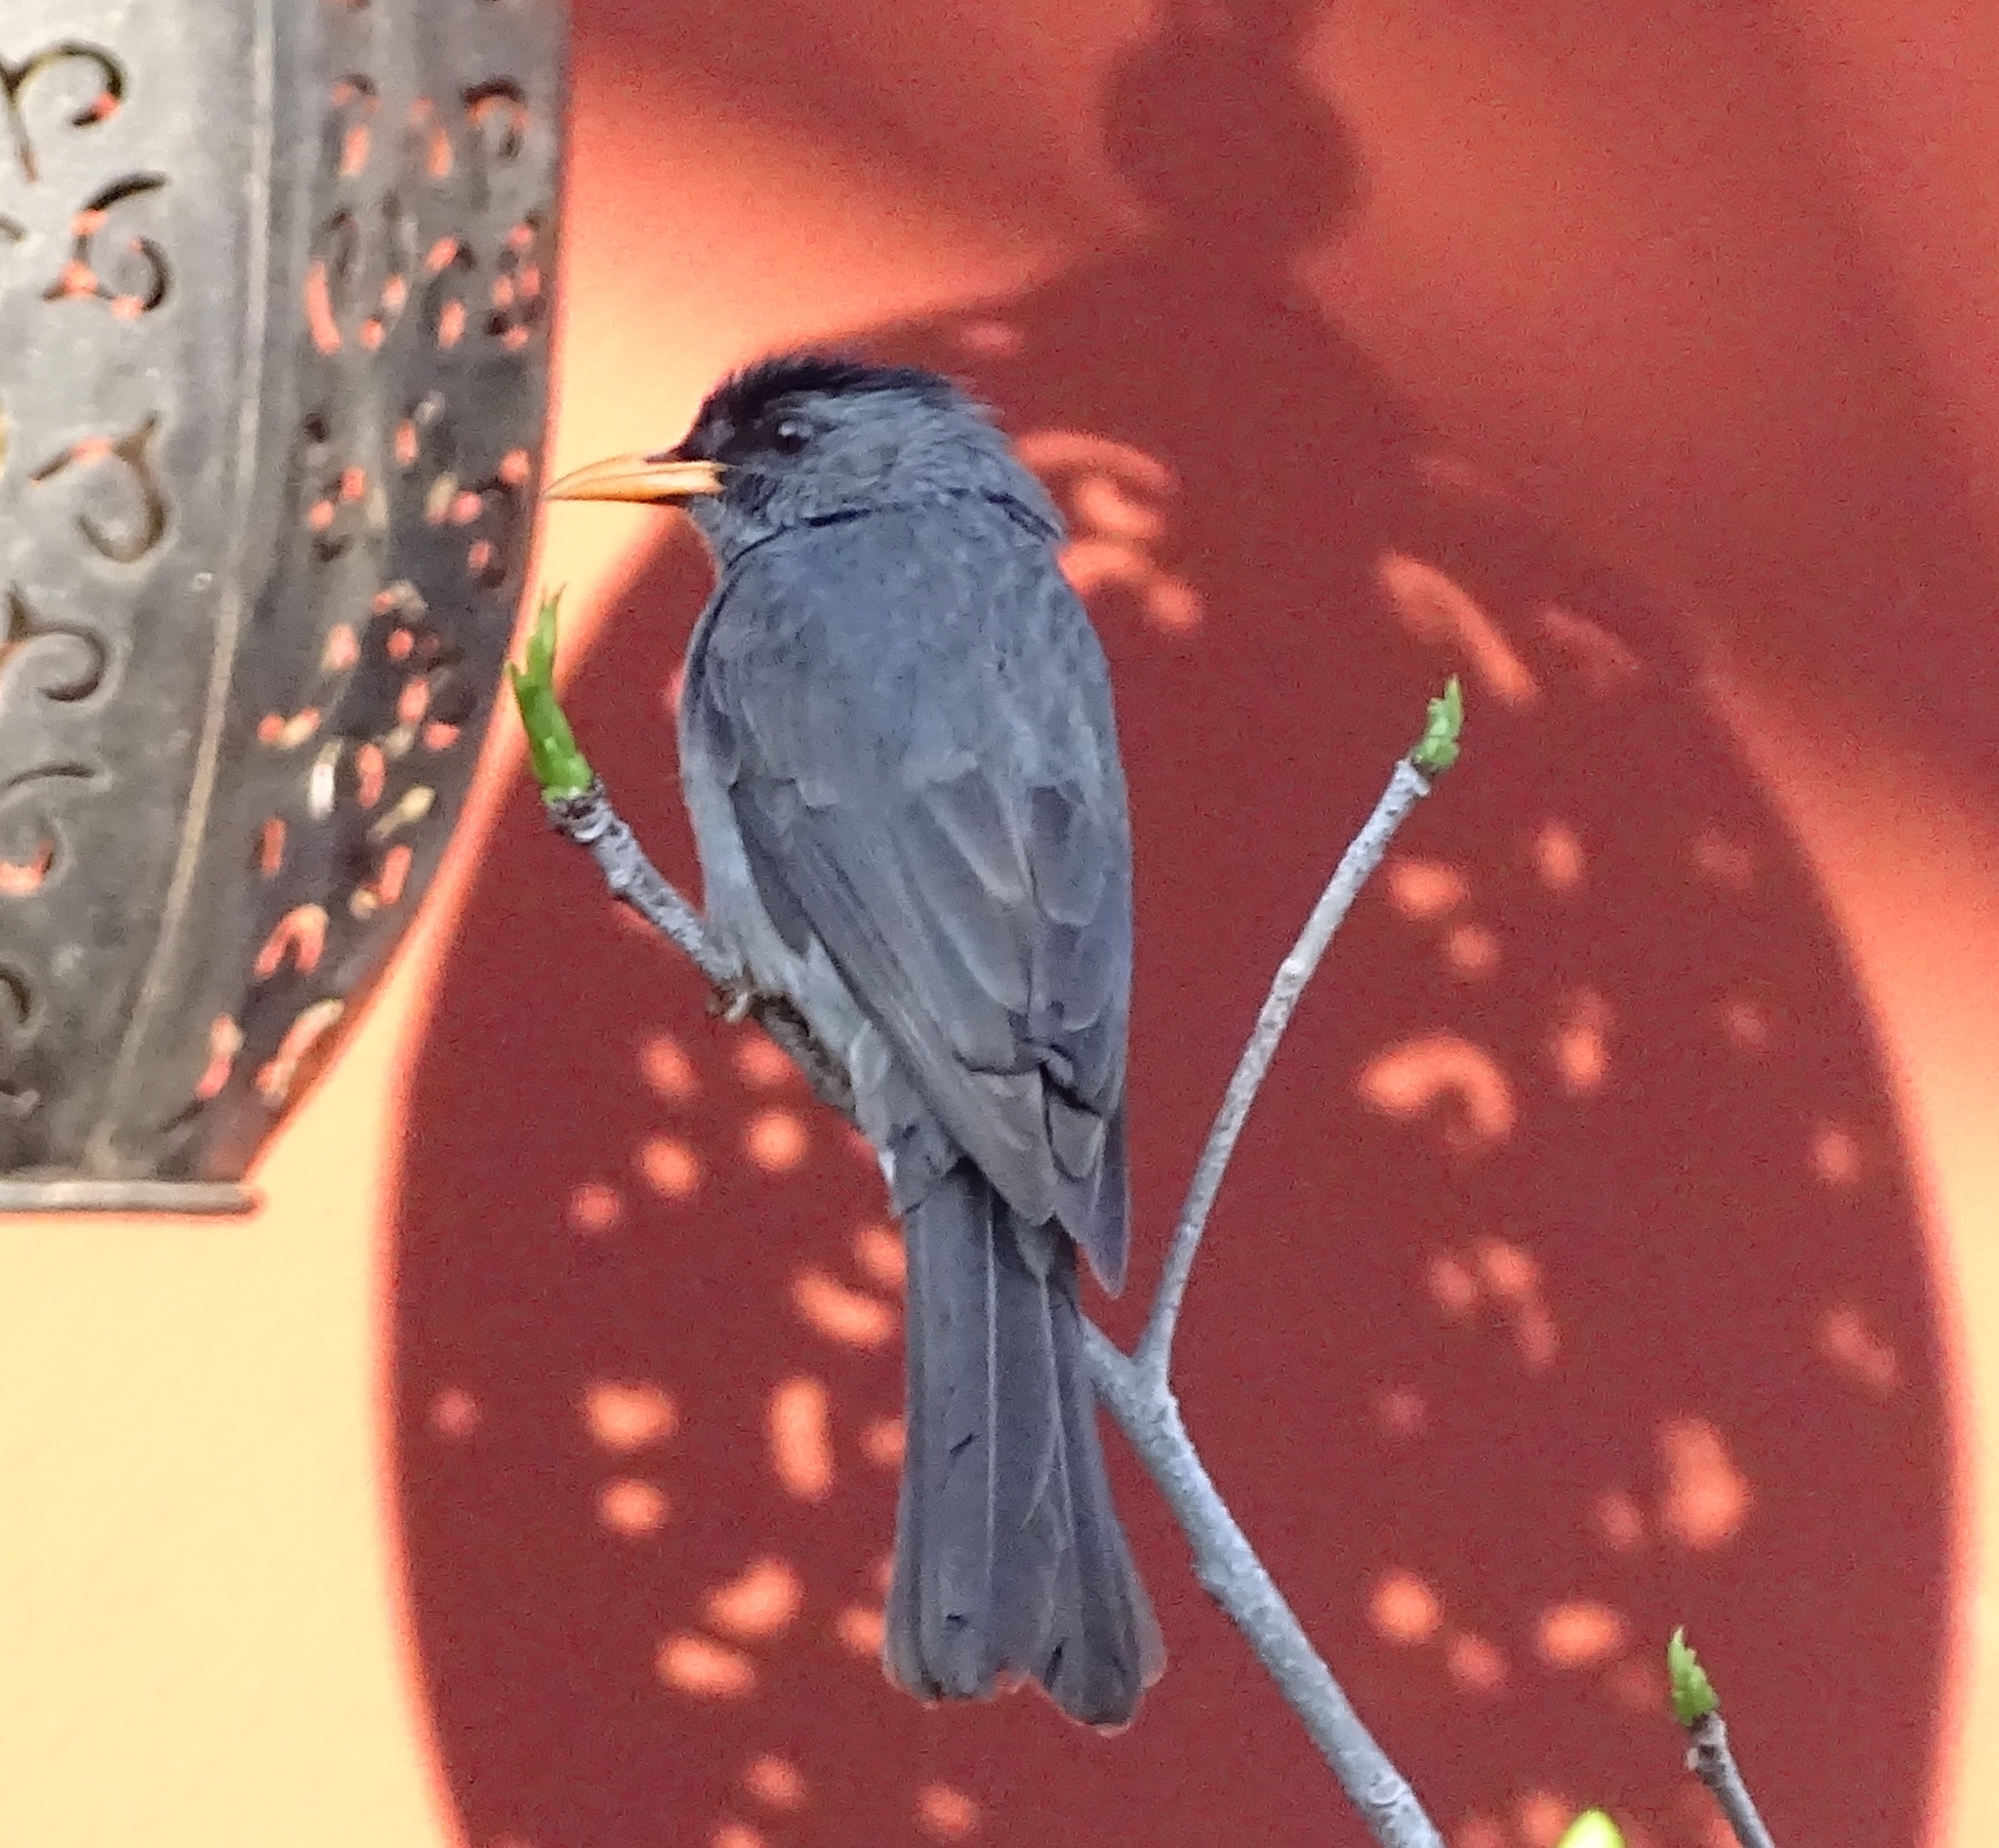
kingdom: Animalia
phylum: Chordata
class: Aves
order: Passeriformes
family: Pycnonotidae
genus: Hypsipetes
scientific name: Hypsipetes madagascariensis
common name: Malagasy bulbul
